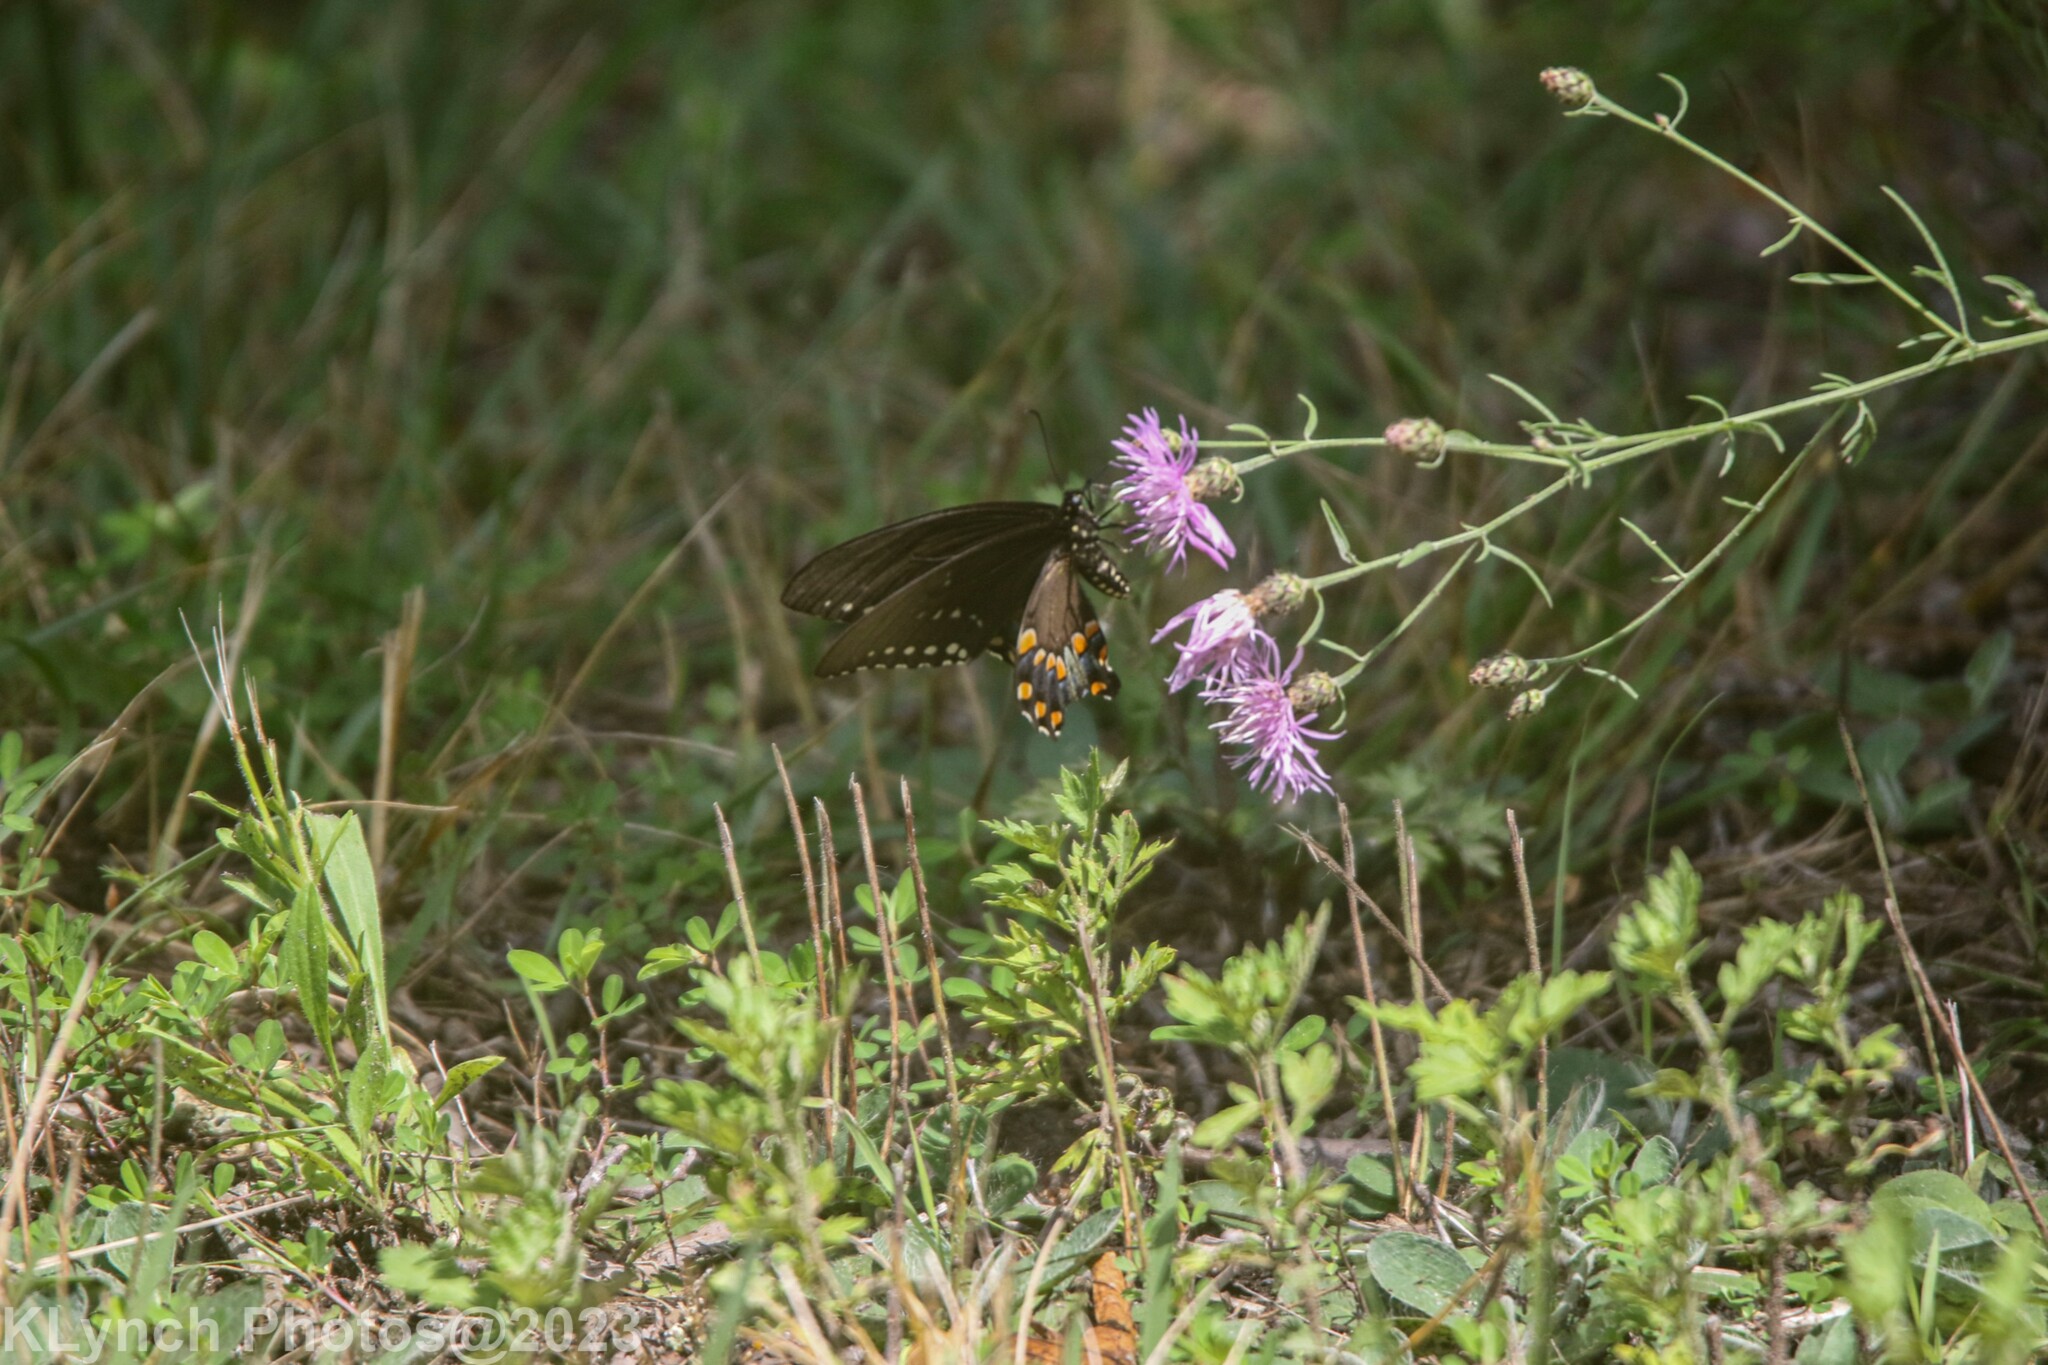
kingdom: Animalia
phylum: Arthropoda
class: Insecta
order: Lepidoptera
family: Papilionidae
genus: Papilio
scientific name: Papilio troilus
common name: Spicebush swallowtail
